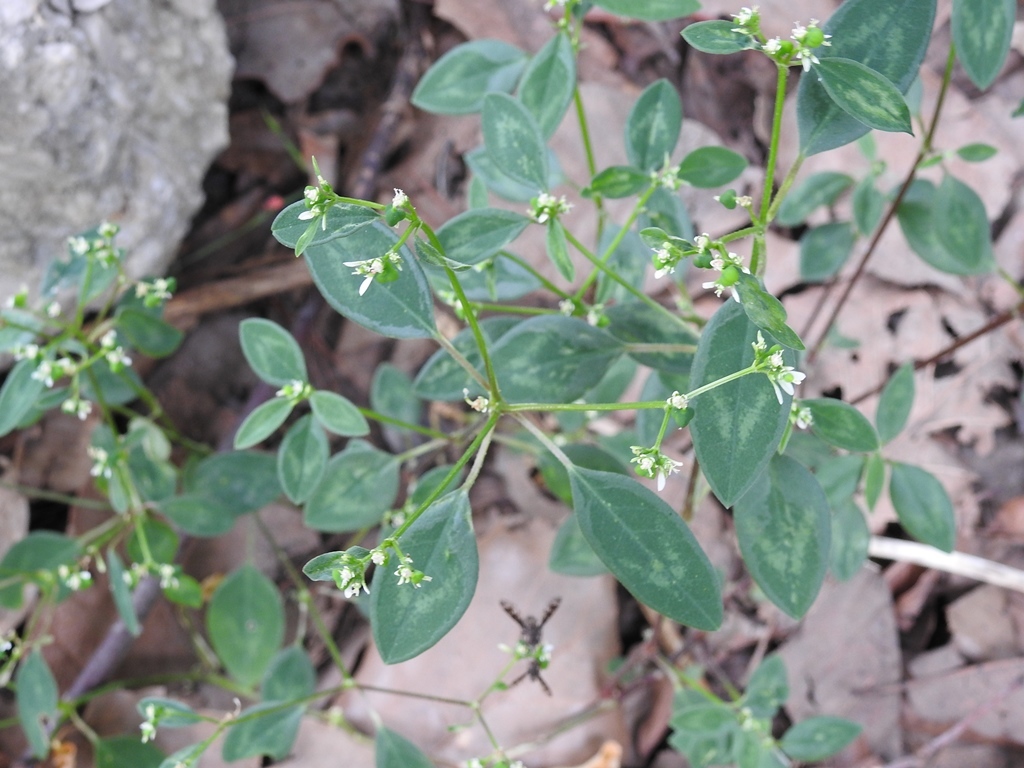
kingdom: Plantae
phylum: Tracheophyta
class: Magnoliopsida
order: Malpighiales
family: Euphorbiaceae
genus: Euphorbia
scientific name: Euphorbia graminea
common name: Grassleaf spurge
